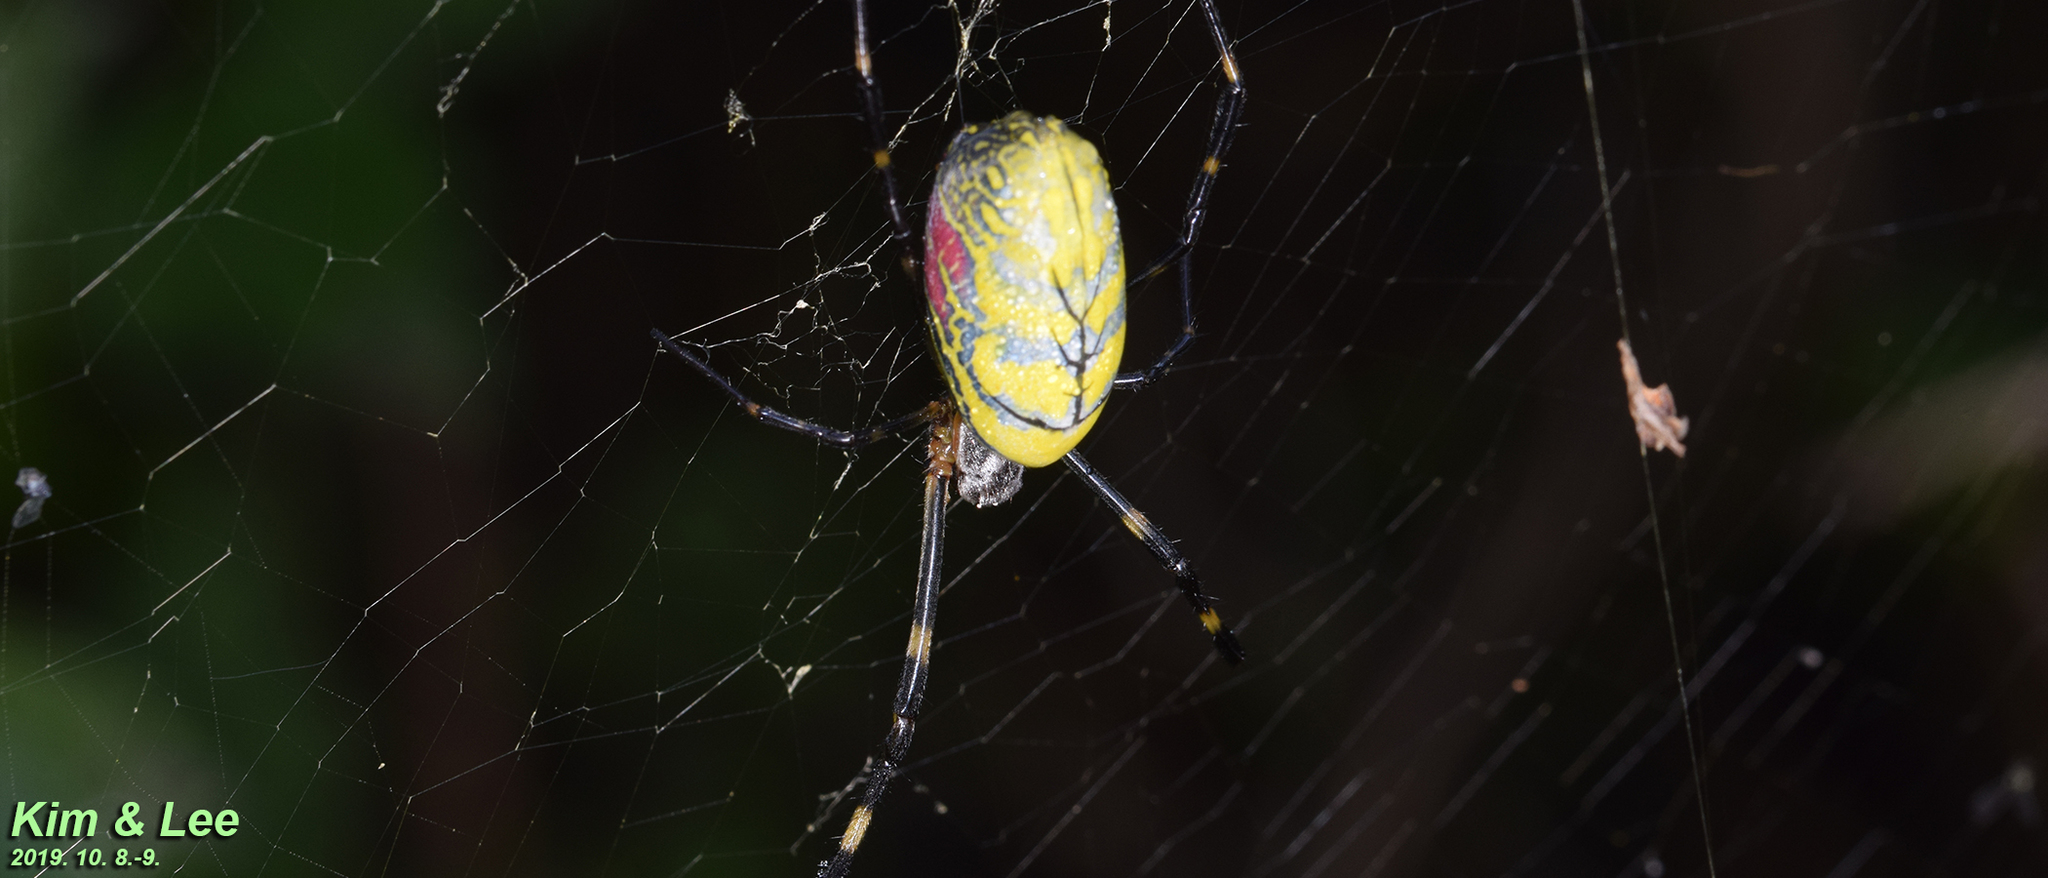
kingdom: Animalia
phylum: Arthropoda
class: Arachnida
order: Araneae
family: Araneidae
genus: Trichonephila
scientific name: Trichonephila clavata
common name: Jorō spider
